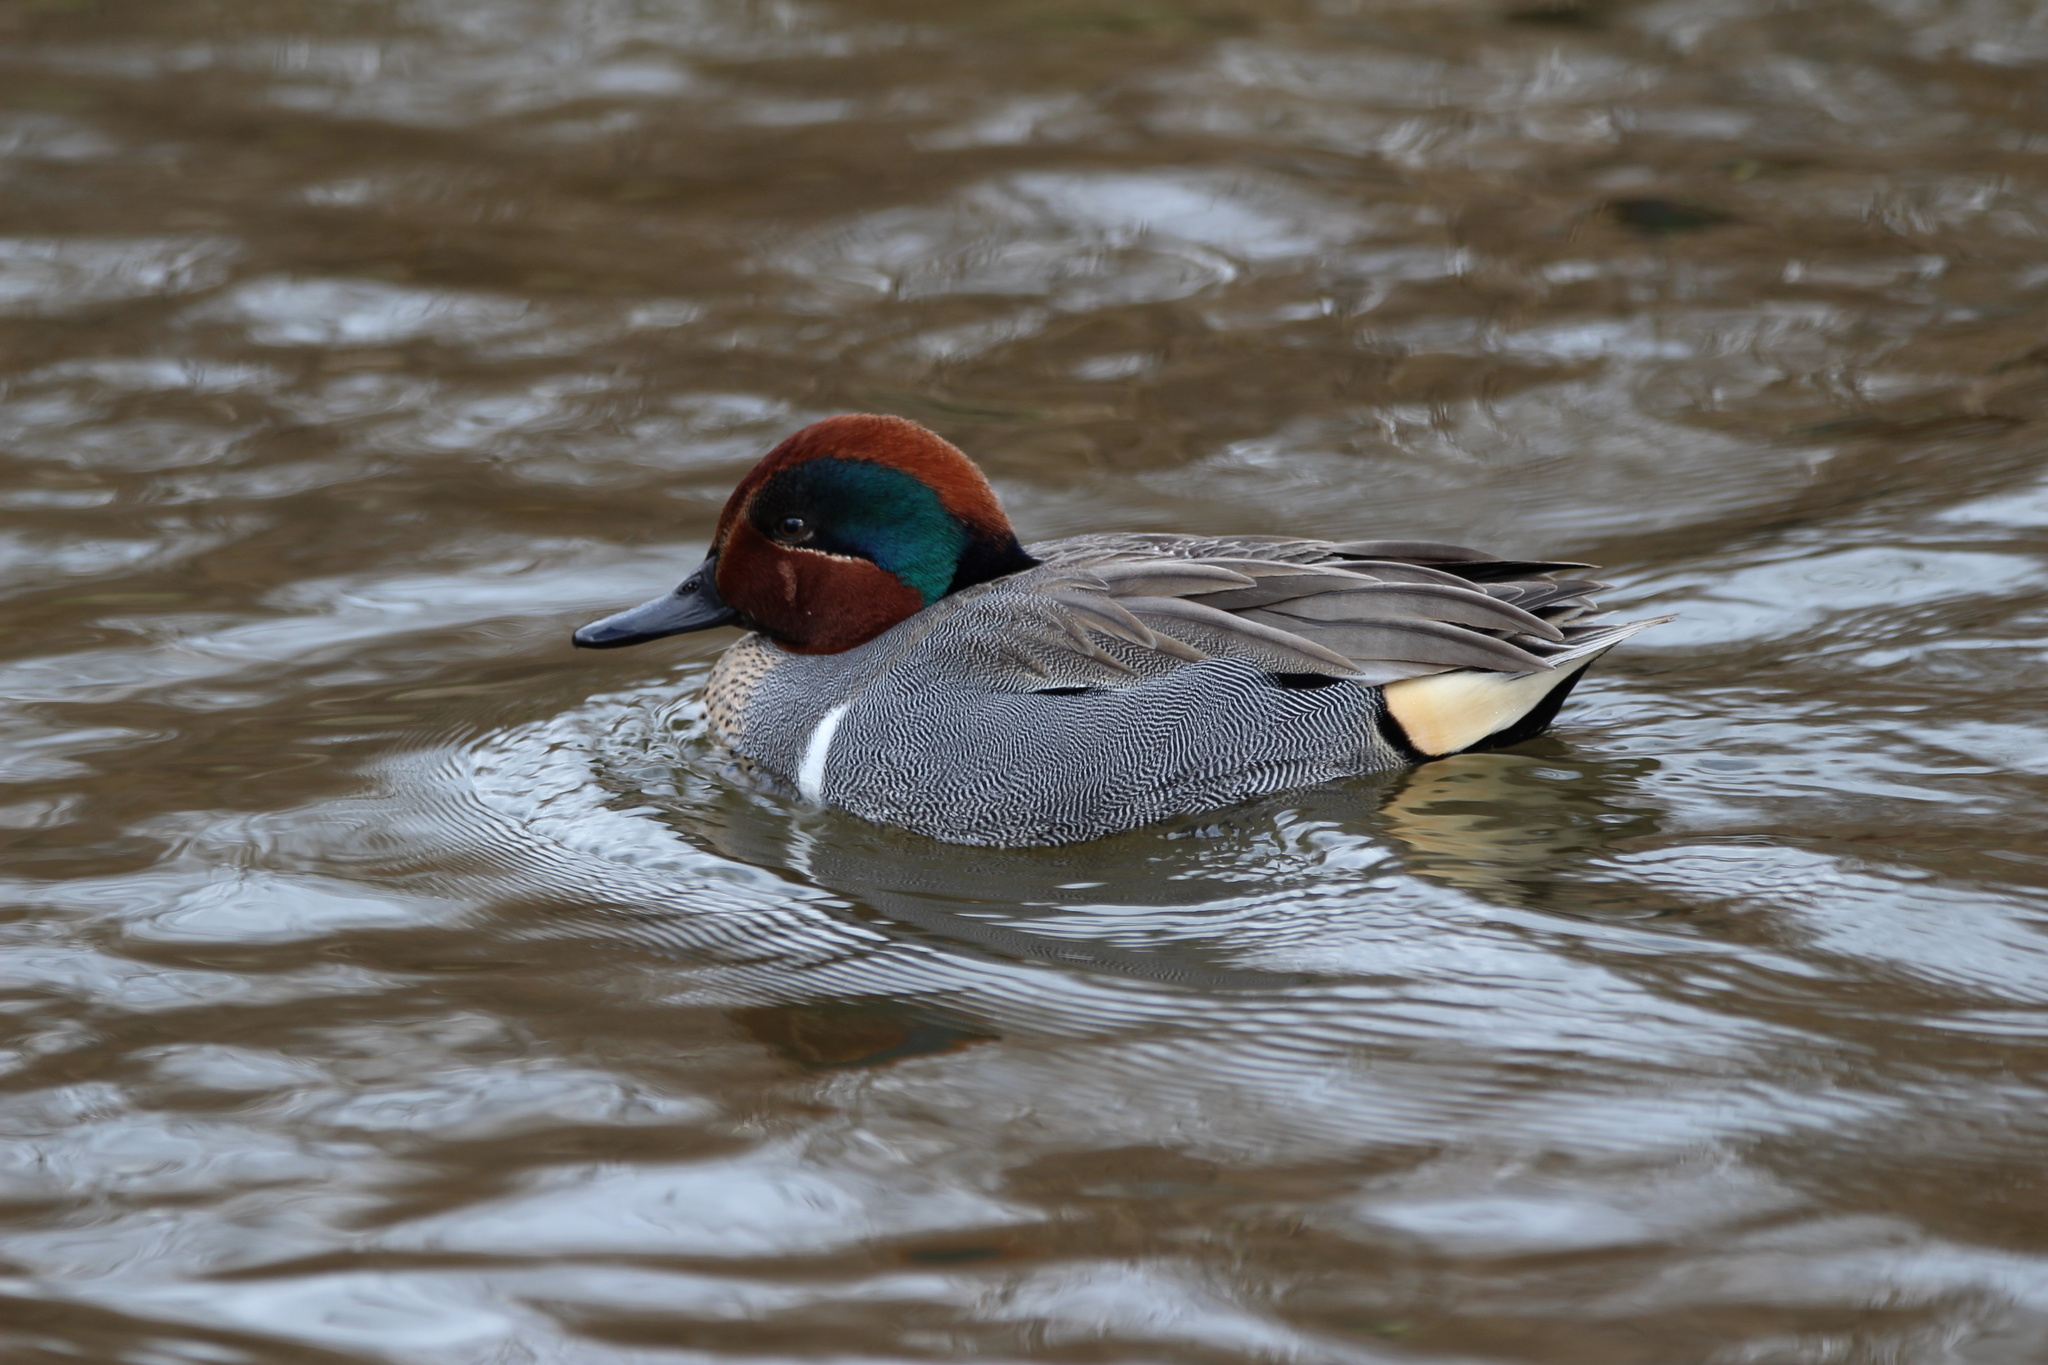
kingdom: Animalia
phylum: Chordata
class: Aves
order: Anseriformes
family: Anatidae
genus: Anas
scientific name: Anas carolinensis
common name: Green-winged teal
